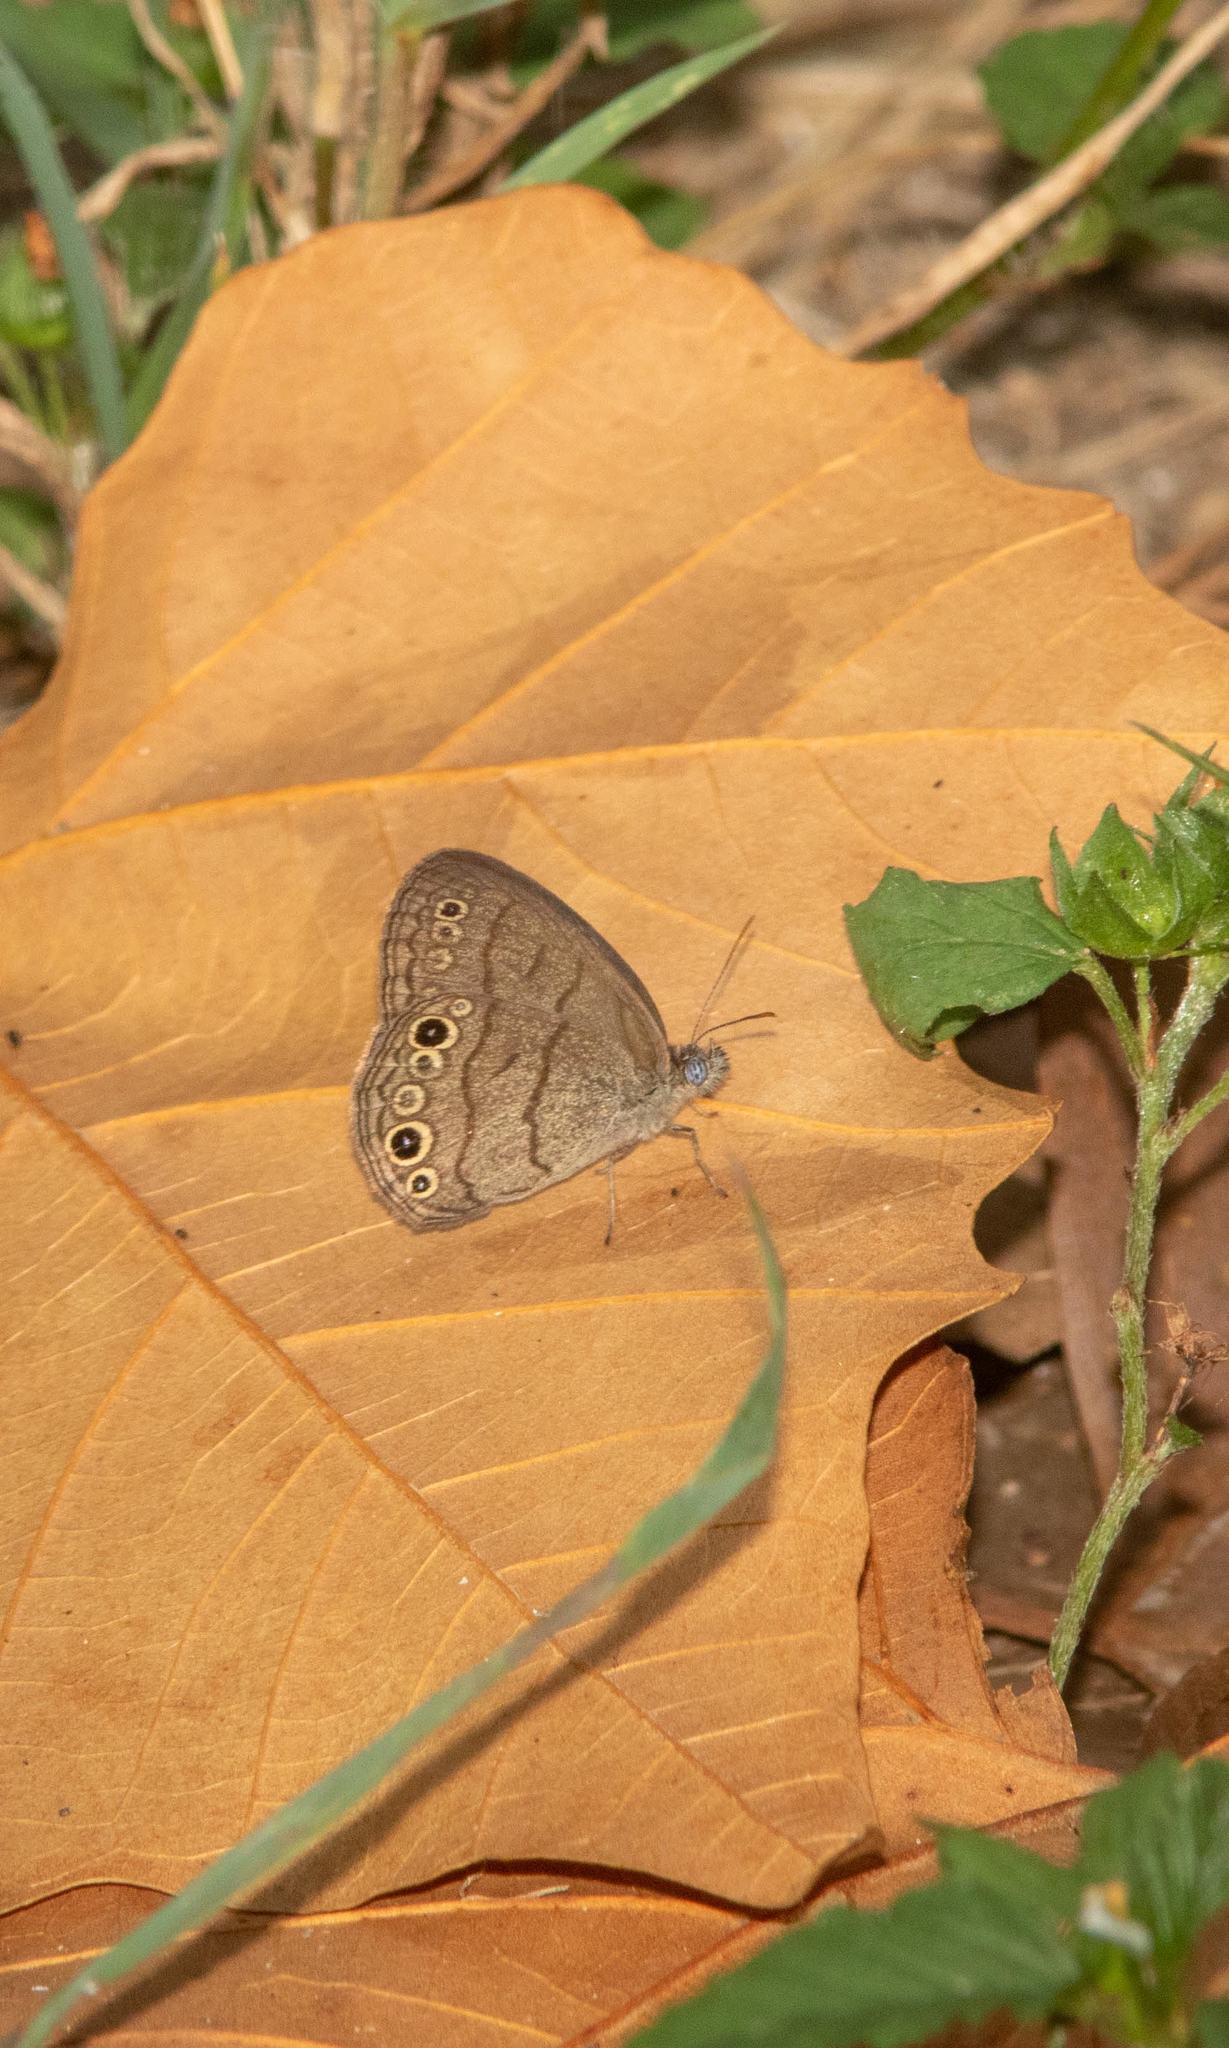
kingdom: Animalia
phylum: Arthropoda
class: Insecta
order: Lepidoptera
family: Nymphalidae
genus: Hermeuptychia
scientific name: Hermeuptychia hermes
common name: Hermes satyr
